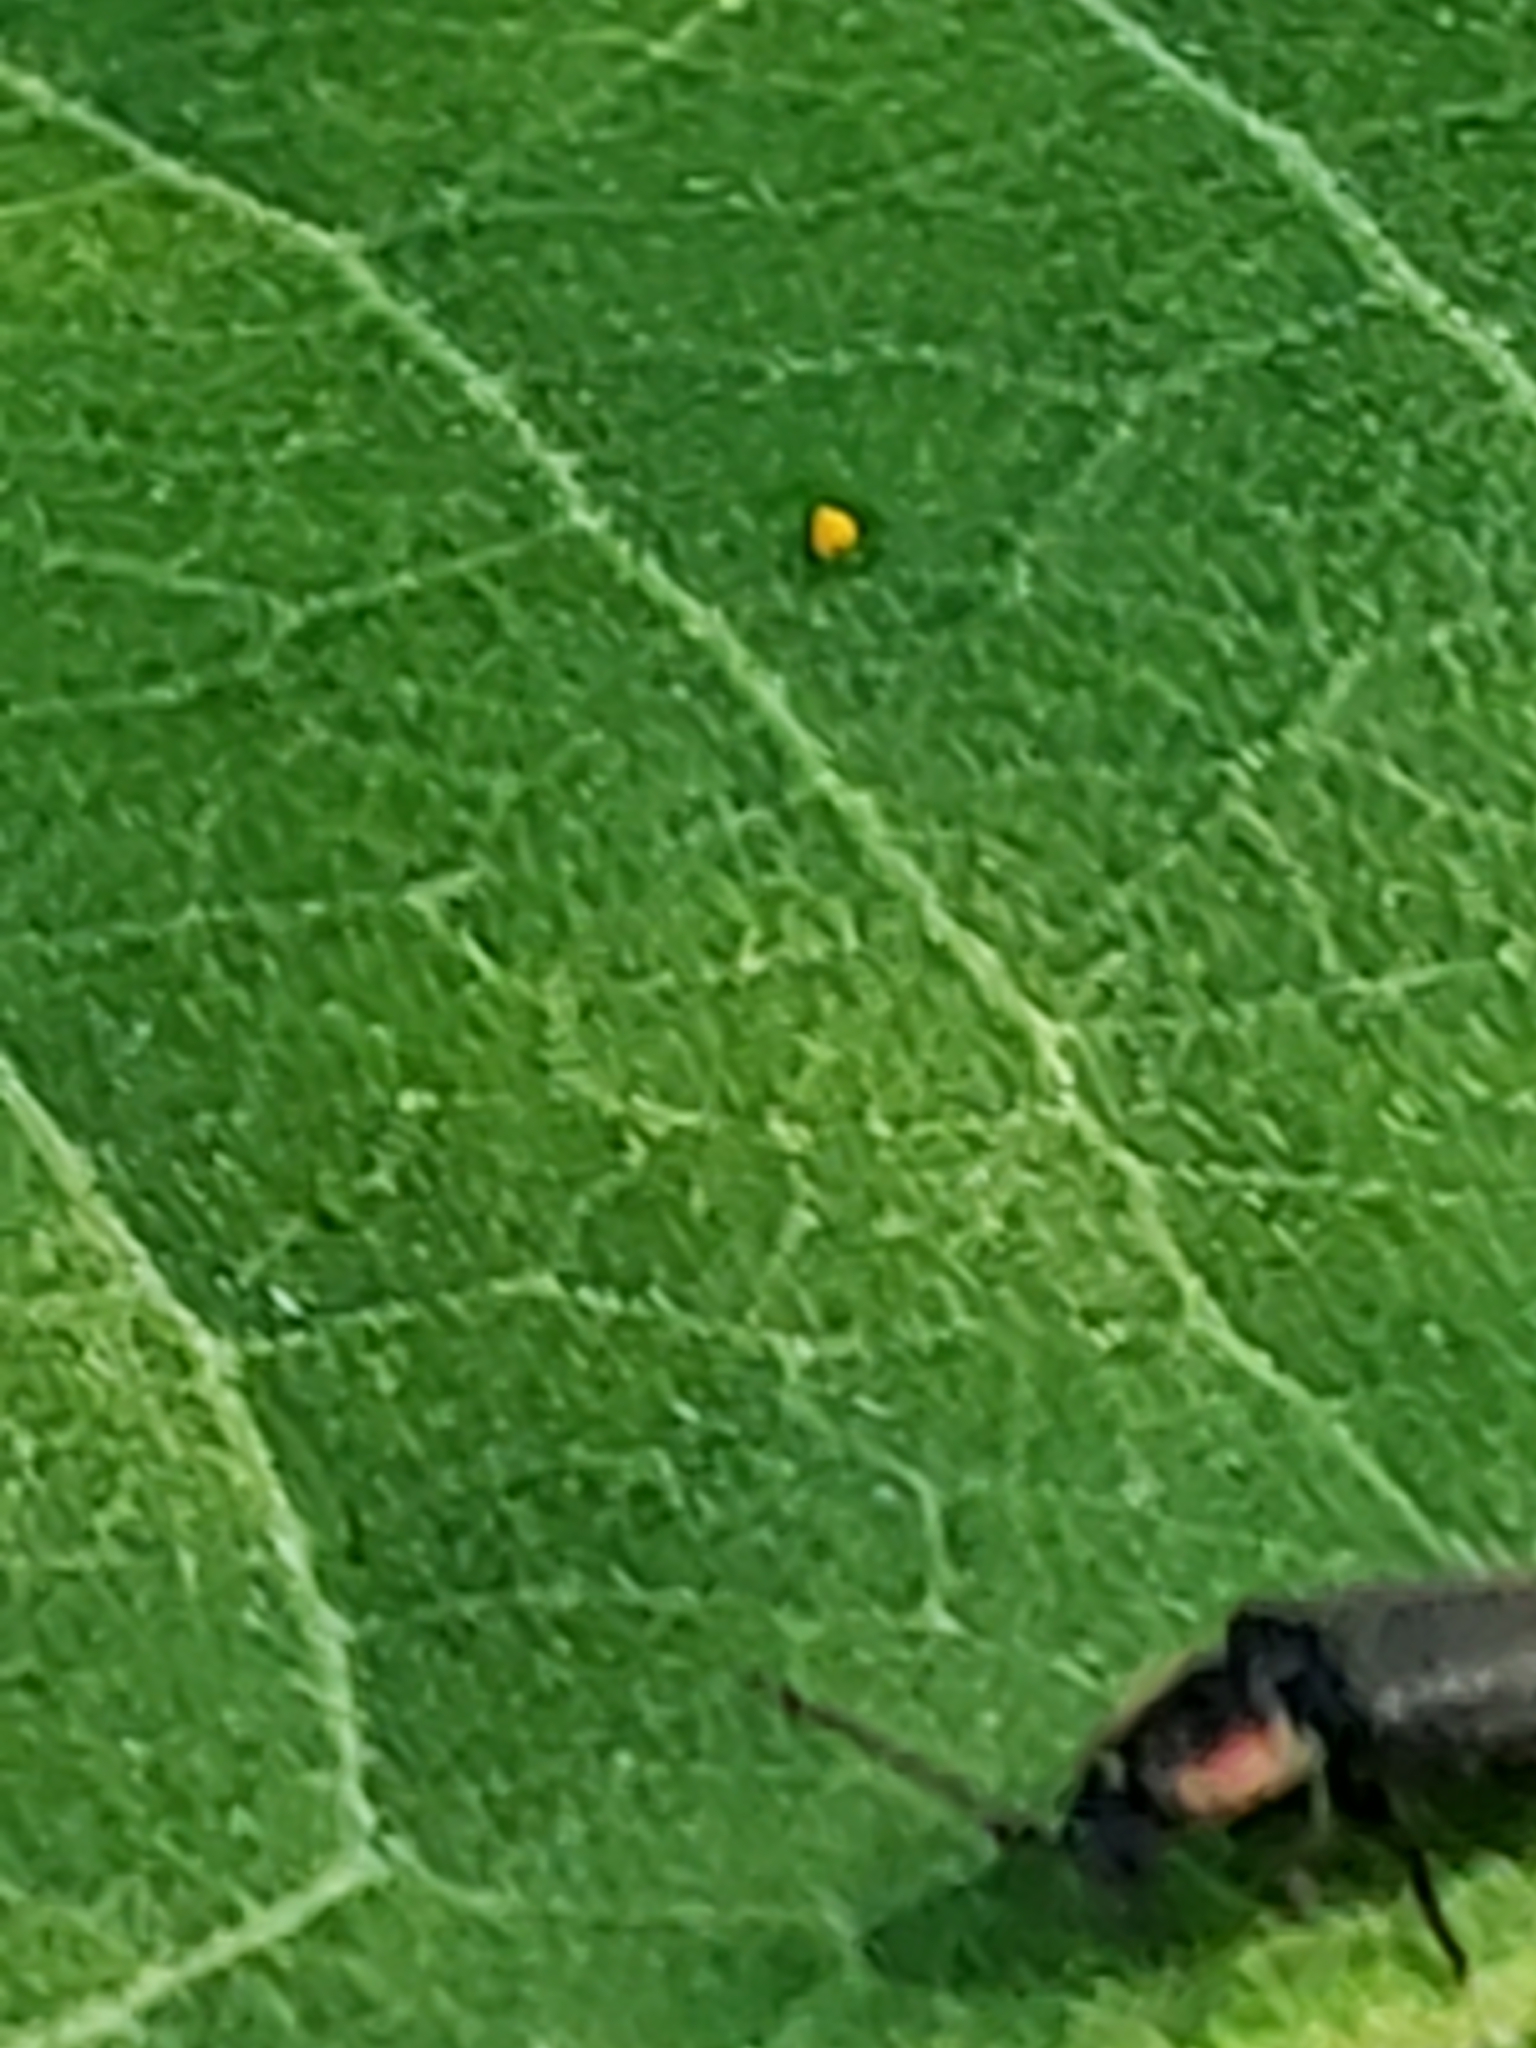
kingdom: Animalia
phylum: Arthropoda
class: Insecta
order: Coleoptera
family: Lampyridae
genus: Pyropyga
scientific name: Pyropyga decipiens
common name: Sneaky elf
